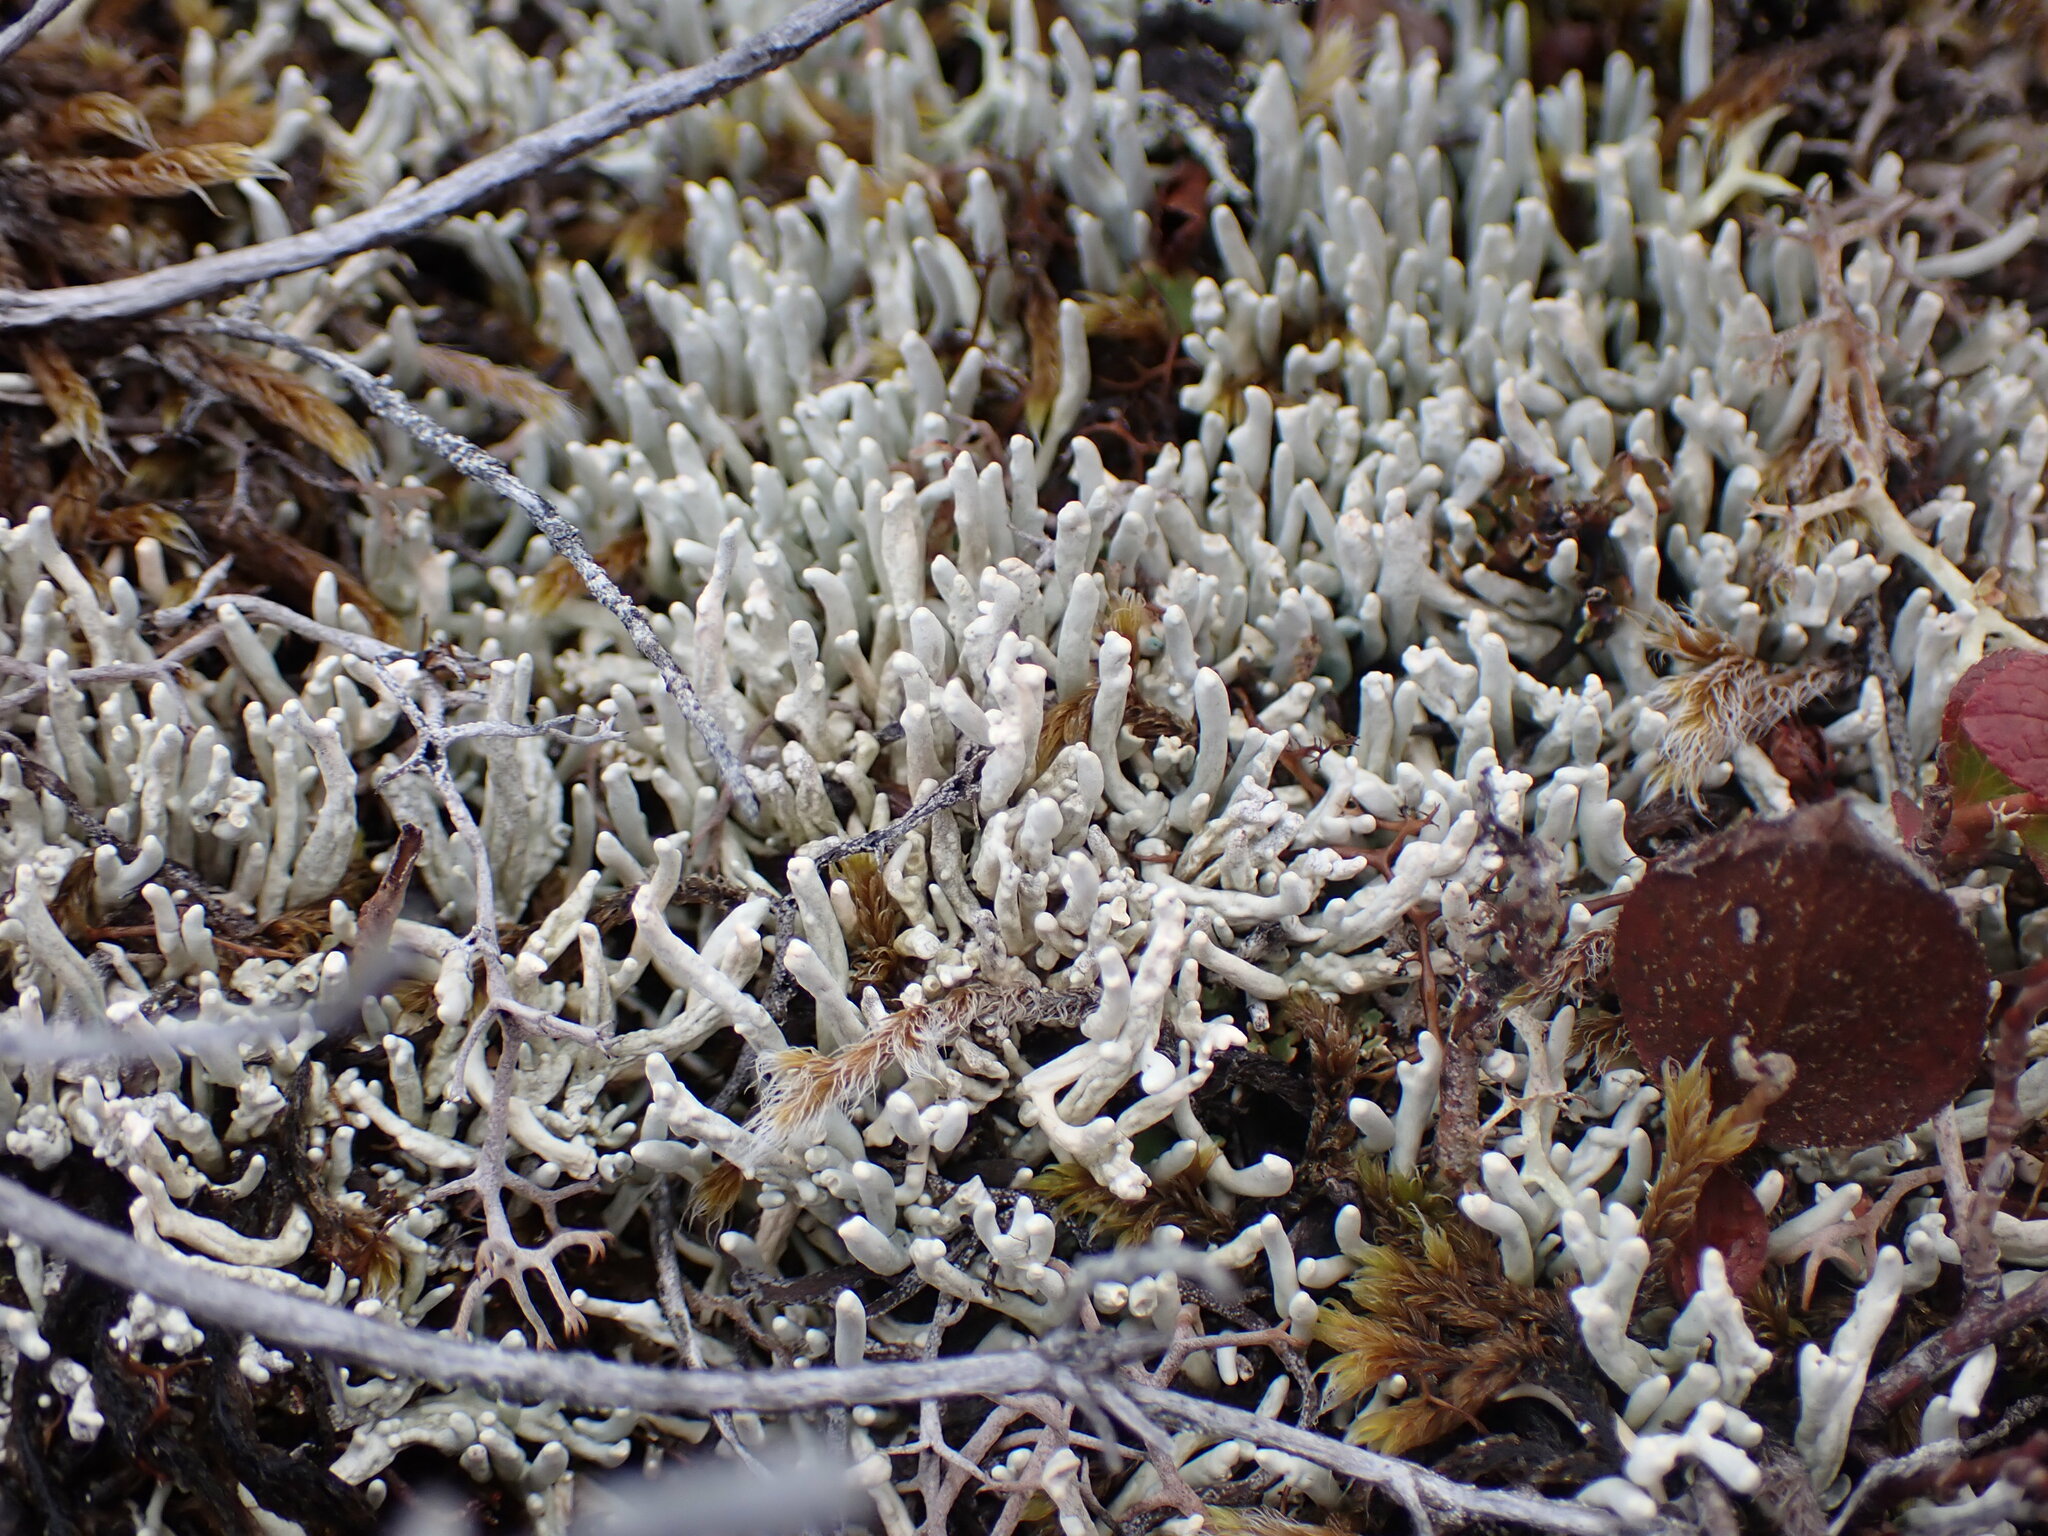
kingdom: Fungi
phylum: Ascomycota
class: Lecanoromycetes
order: Pertusariales
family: Icmadophilaceae
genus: Siphula
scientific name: Siphula ceratites
